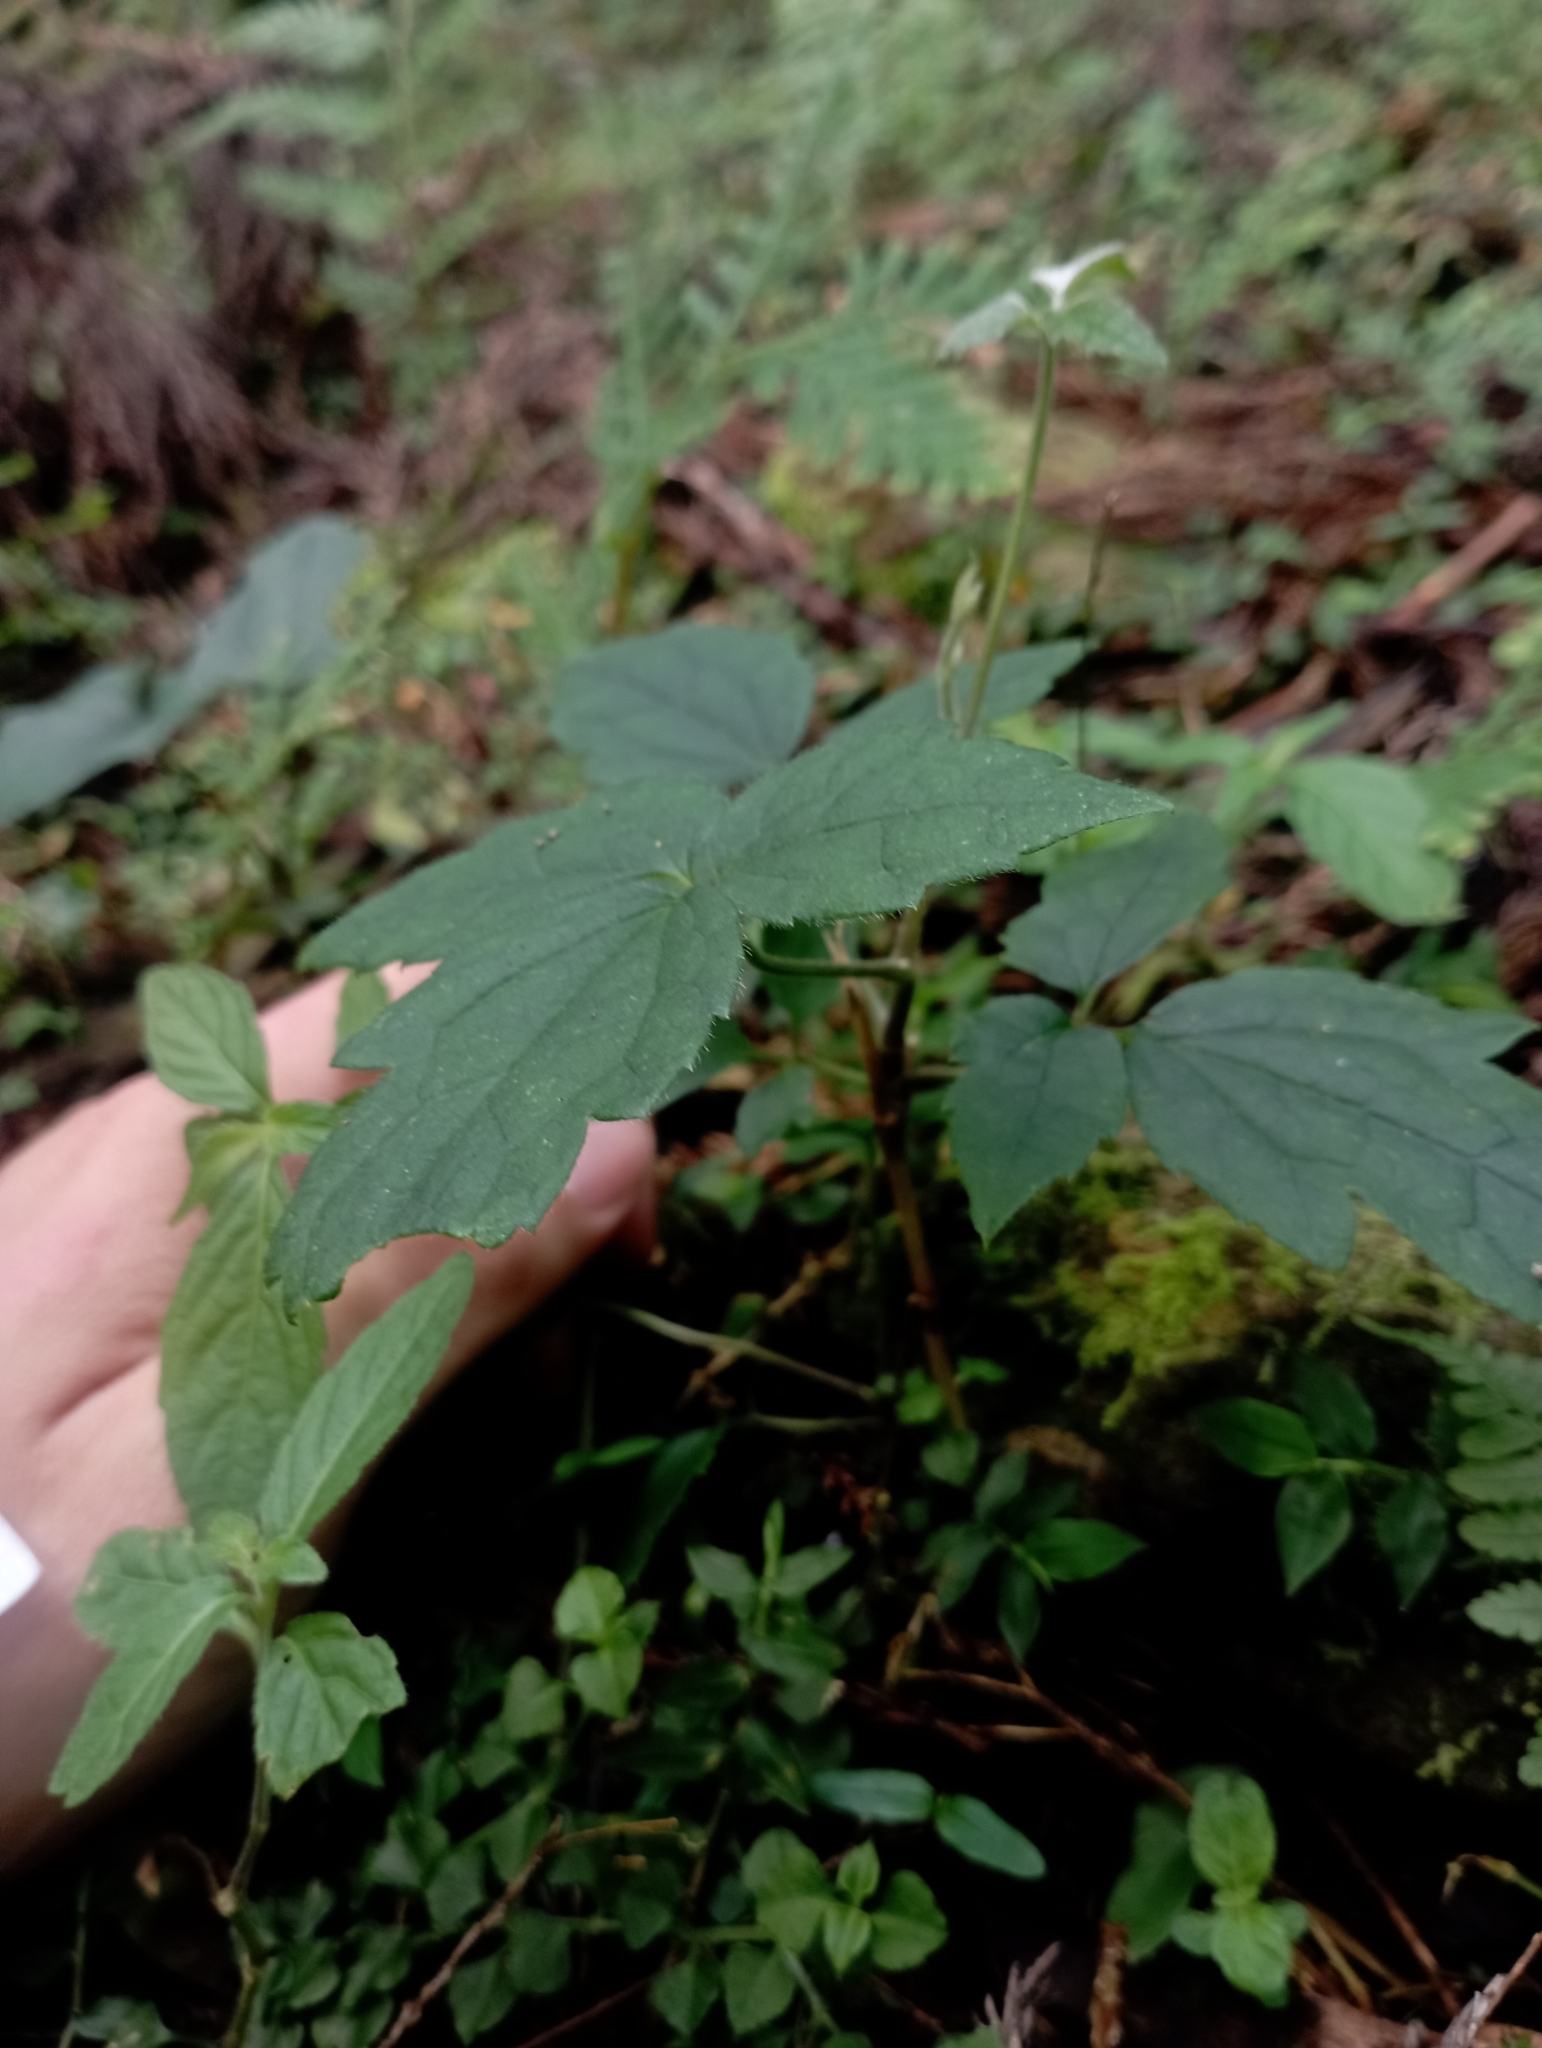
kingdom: Plantae
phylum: Tracheophyta
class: Magnoliopsida
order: Ranunculales
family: Ranunculaceae
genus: Clematis
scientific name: Clematis leschenaultiana
